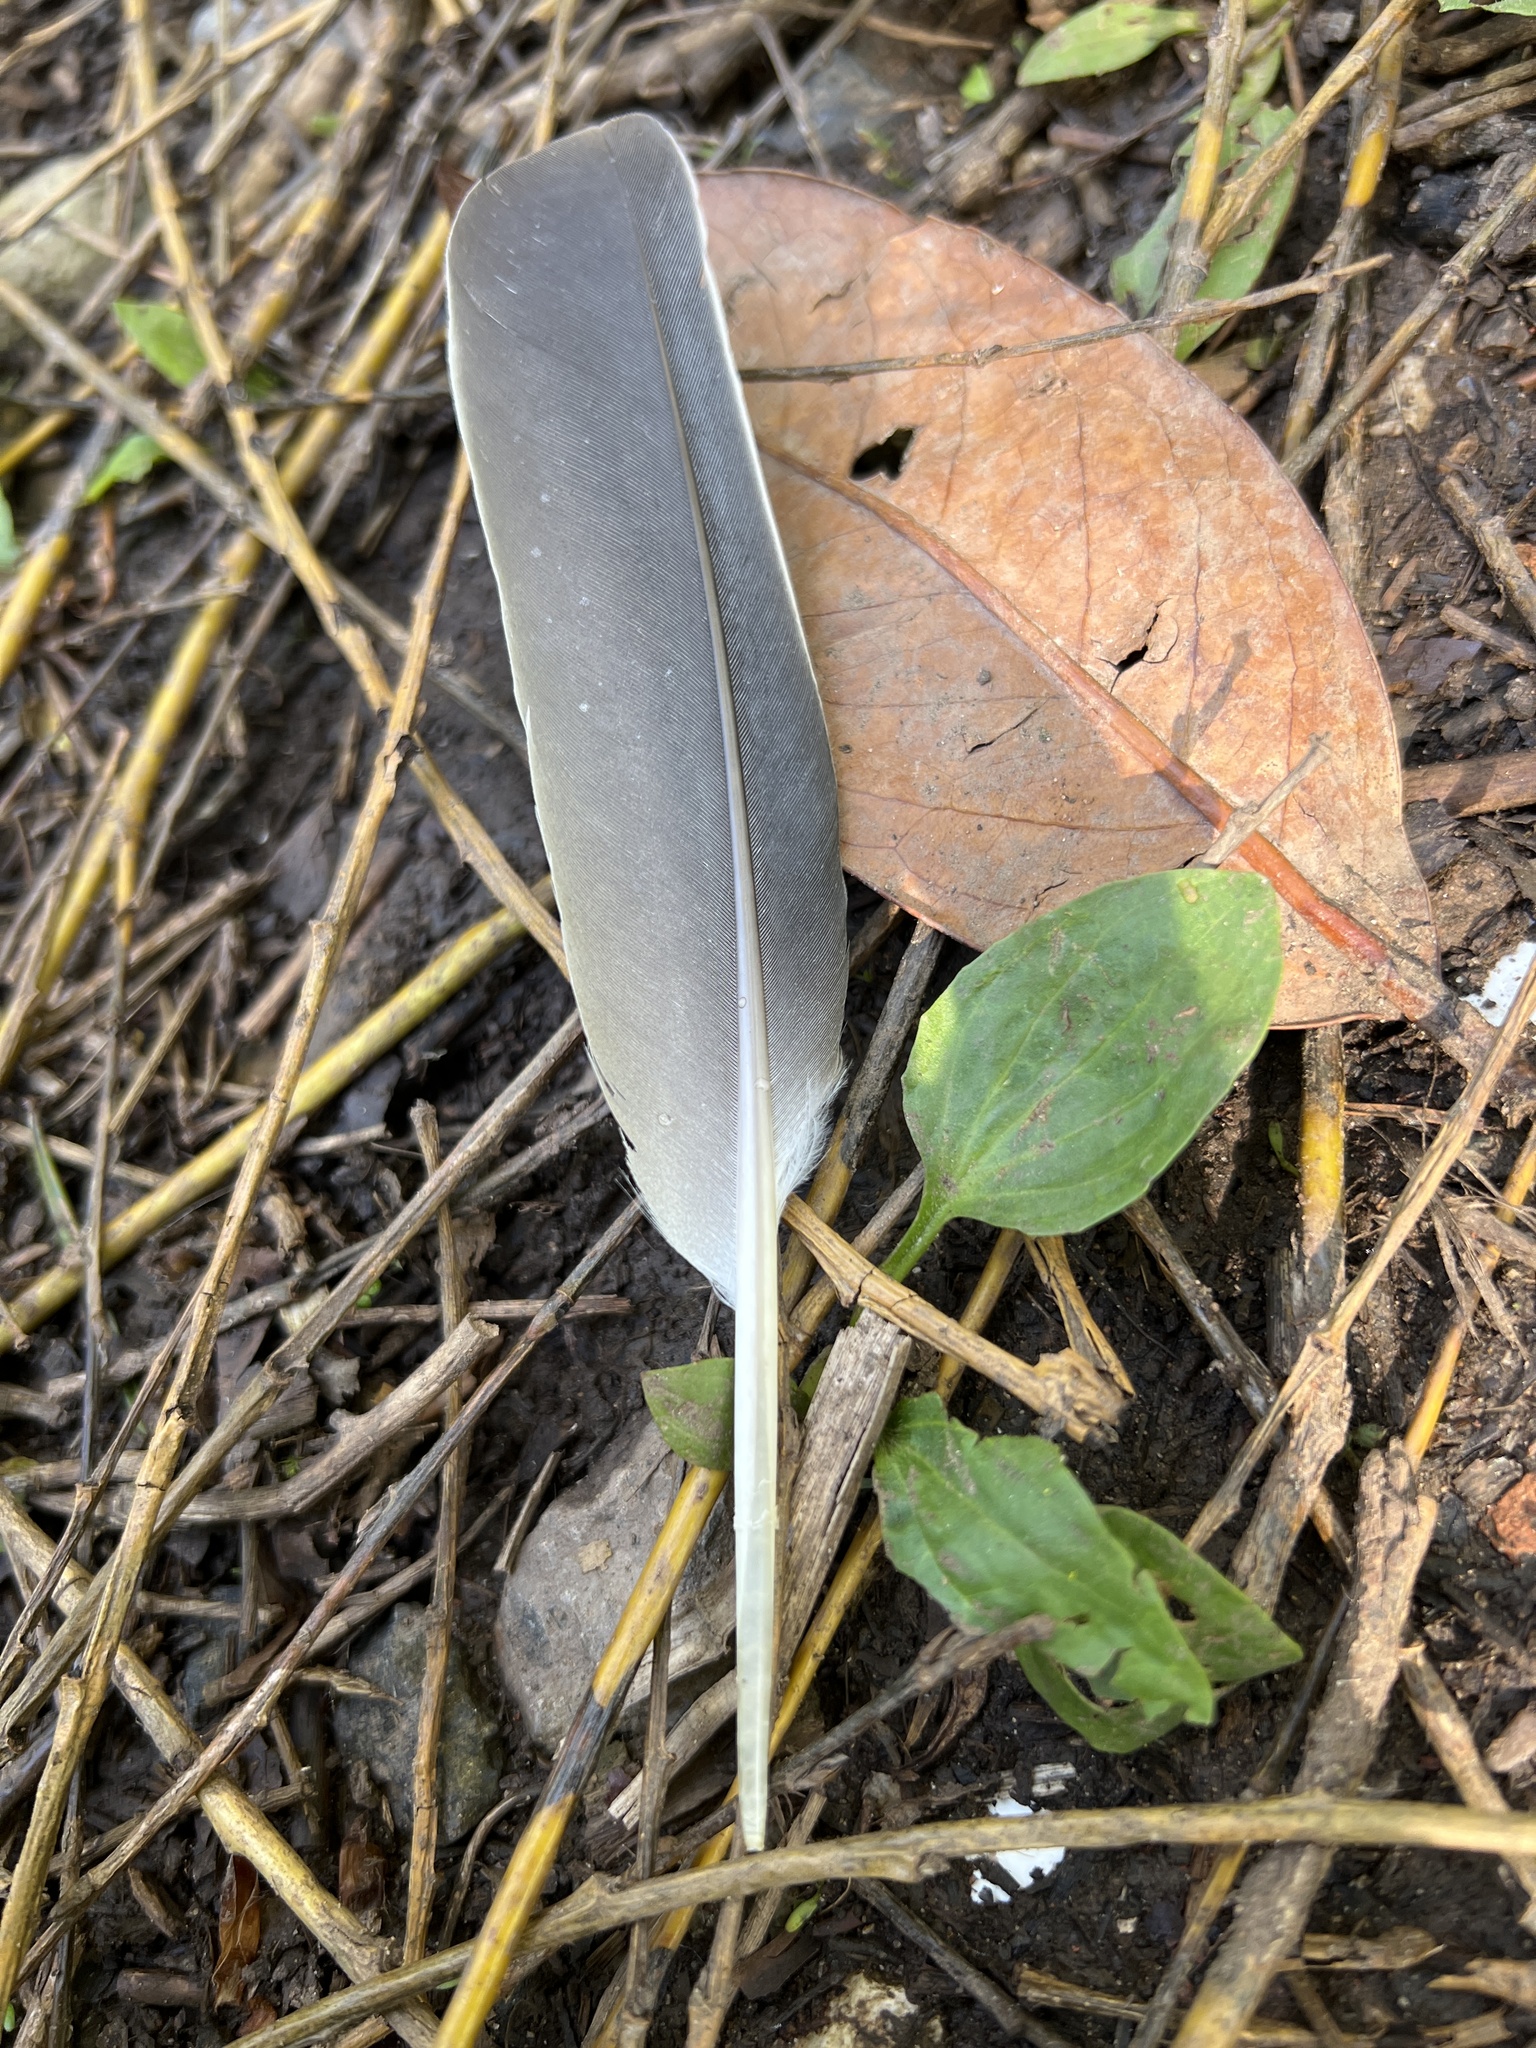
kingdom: Animalia
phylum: Chordata
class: Aves
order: Columbiformes
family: Columbidae
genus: Columba
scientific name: Columba palumbus
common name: Common wood pigeon
